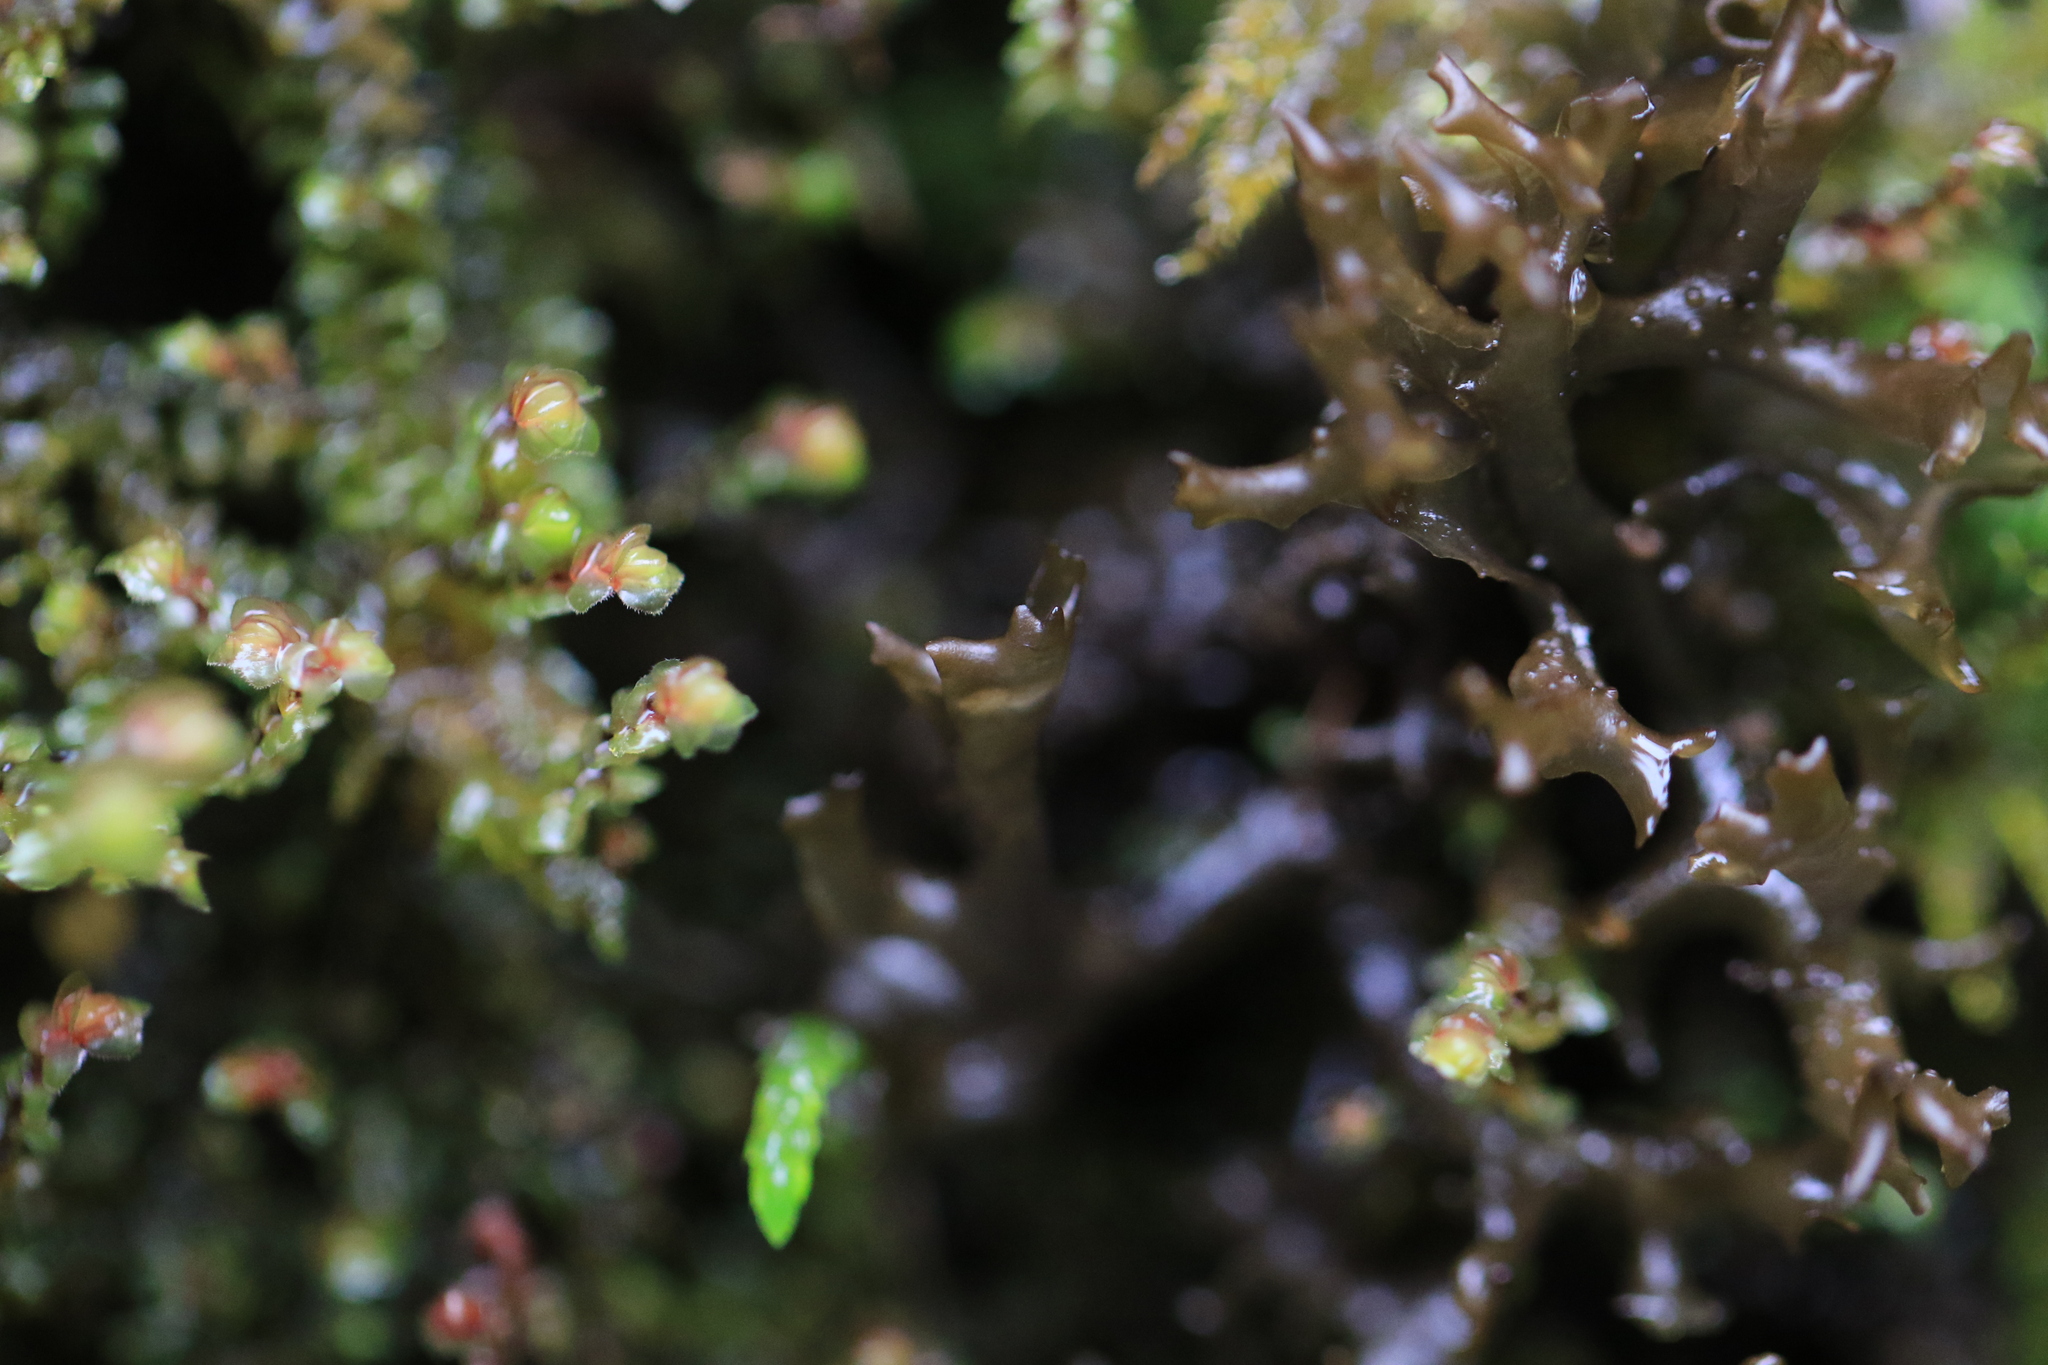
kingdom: Fungi
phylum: Ascomycota
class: Lecanoromycetes
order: Peltigerales
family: Collemataceae
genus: Scytinium
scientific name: Scytinium palmatum
